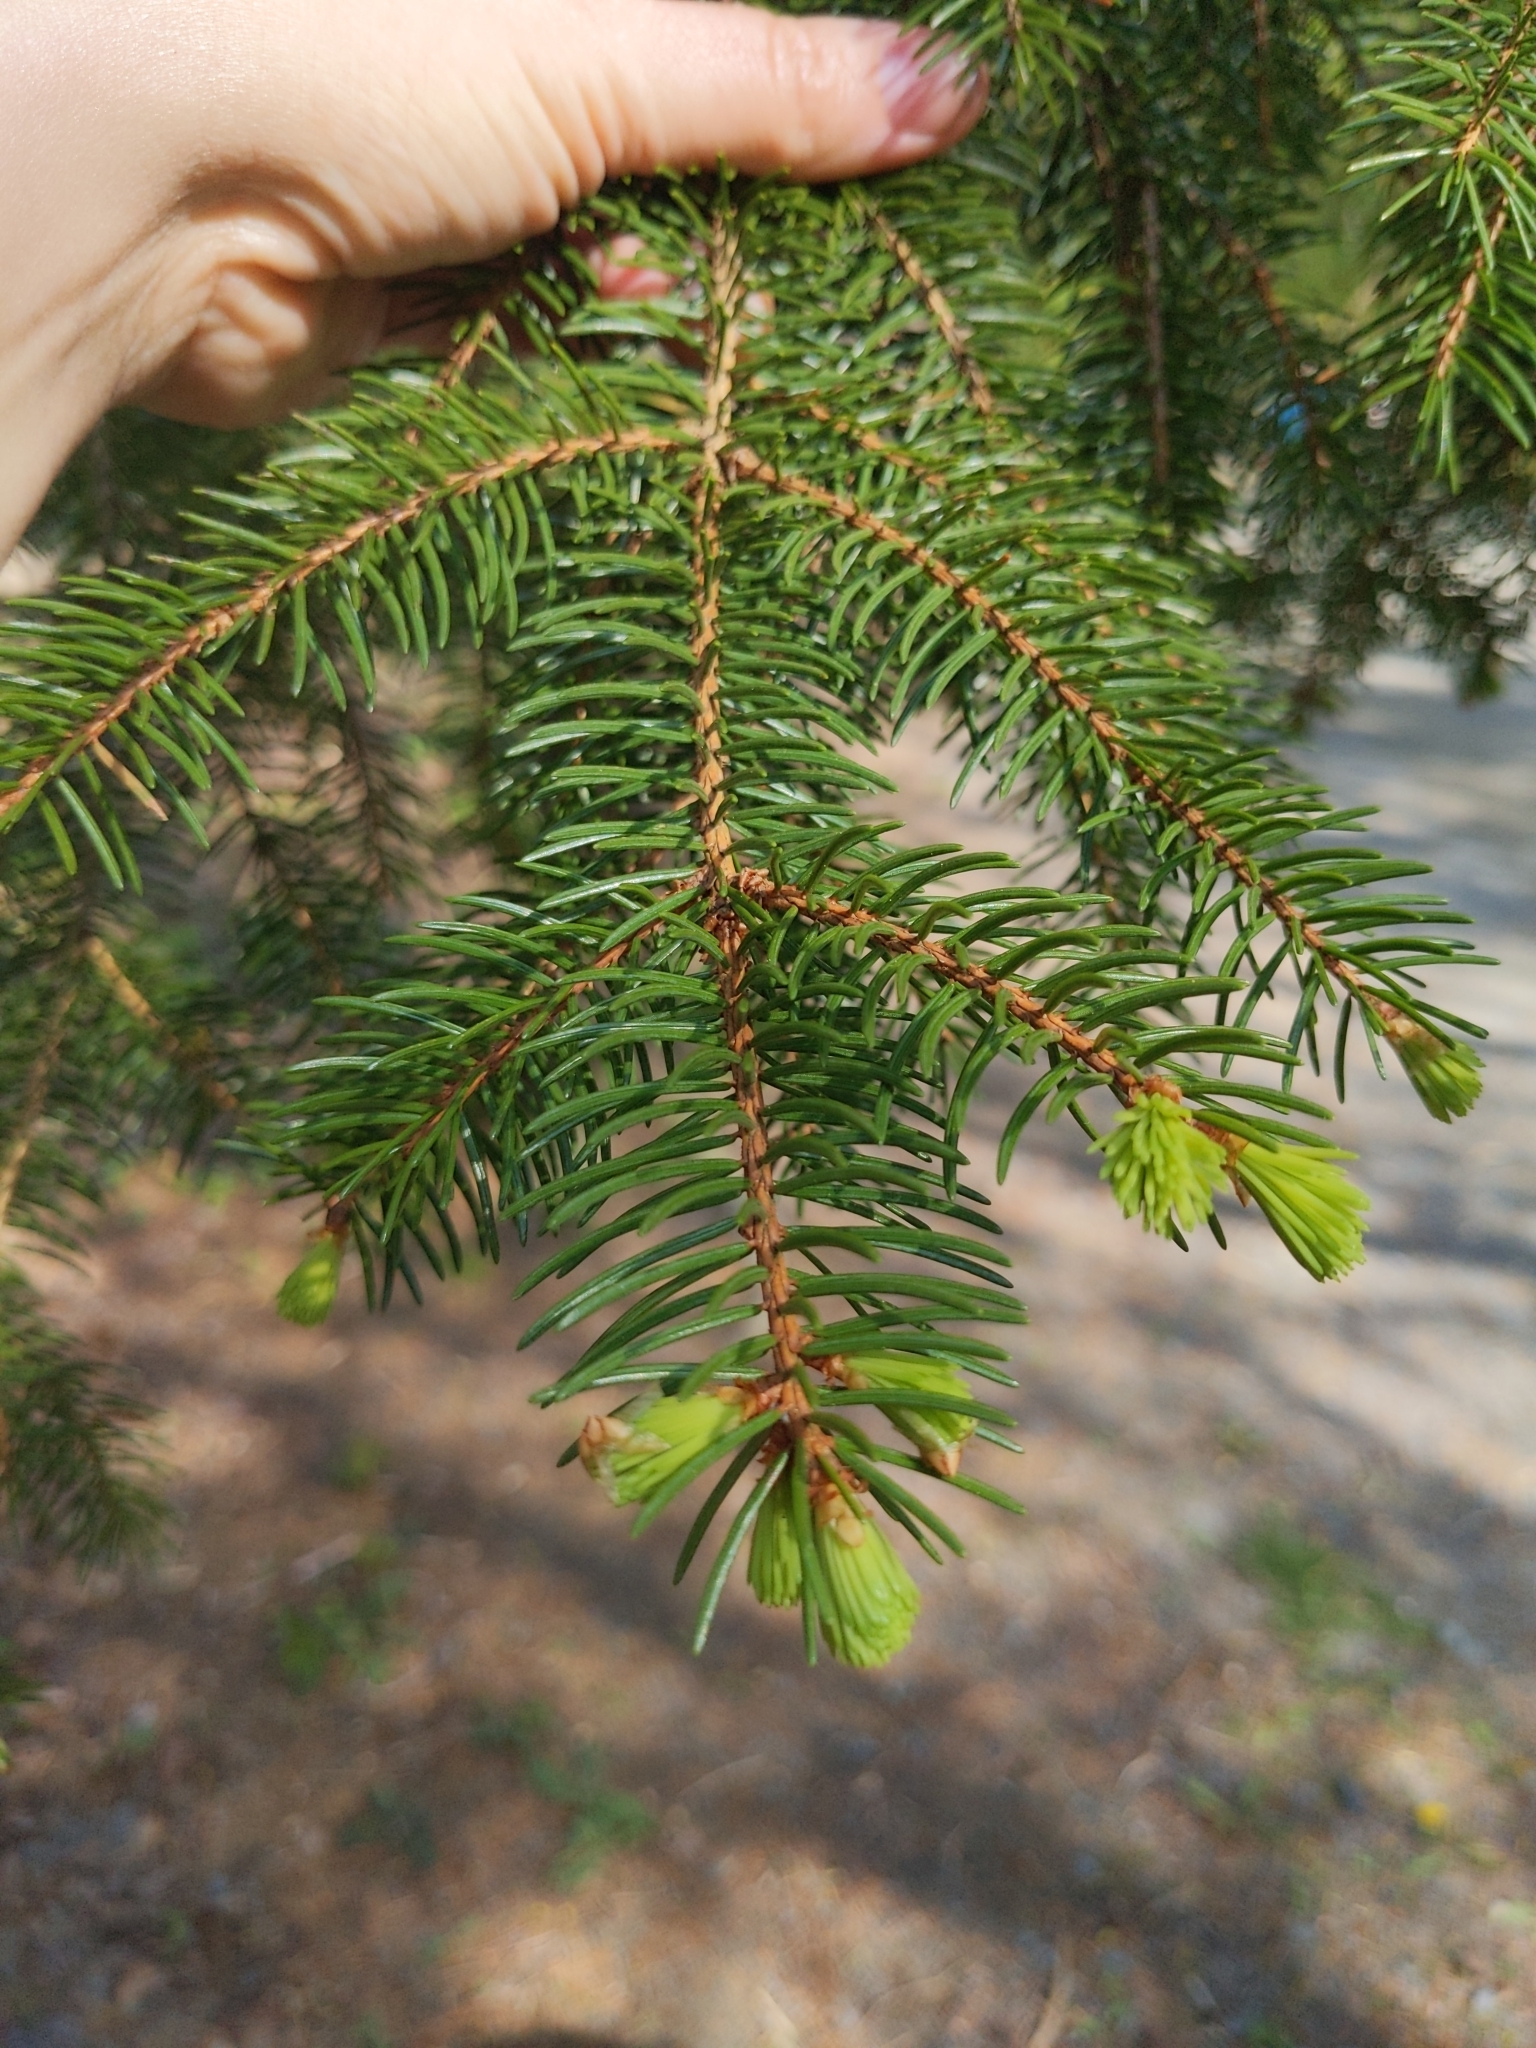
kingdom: Plantae
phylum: Tracheophyta
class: Pinopsida
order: Pinales
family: Pinaceae
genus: Picea
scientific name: Picea abies
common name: Norway spruce
